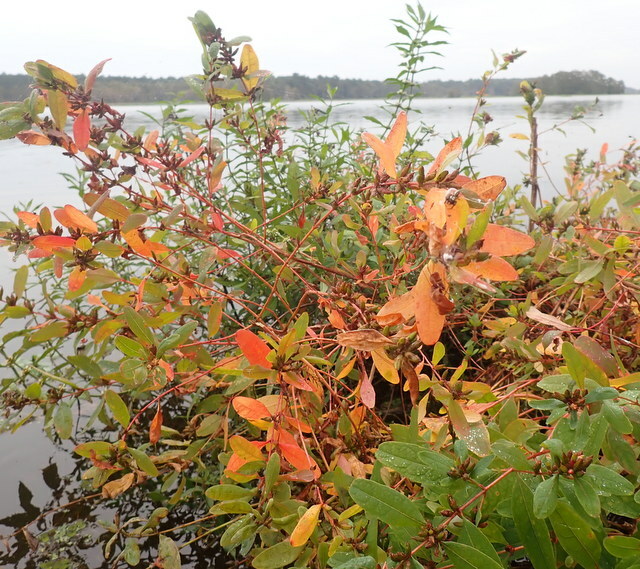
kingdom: Plantae
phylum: Tracheophyta
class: Magnoliopsida
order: Malpighiales
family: Hypericaceae
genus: Triadenum
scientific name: Triadenum walteri
